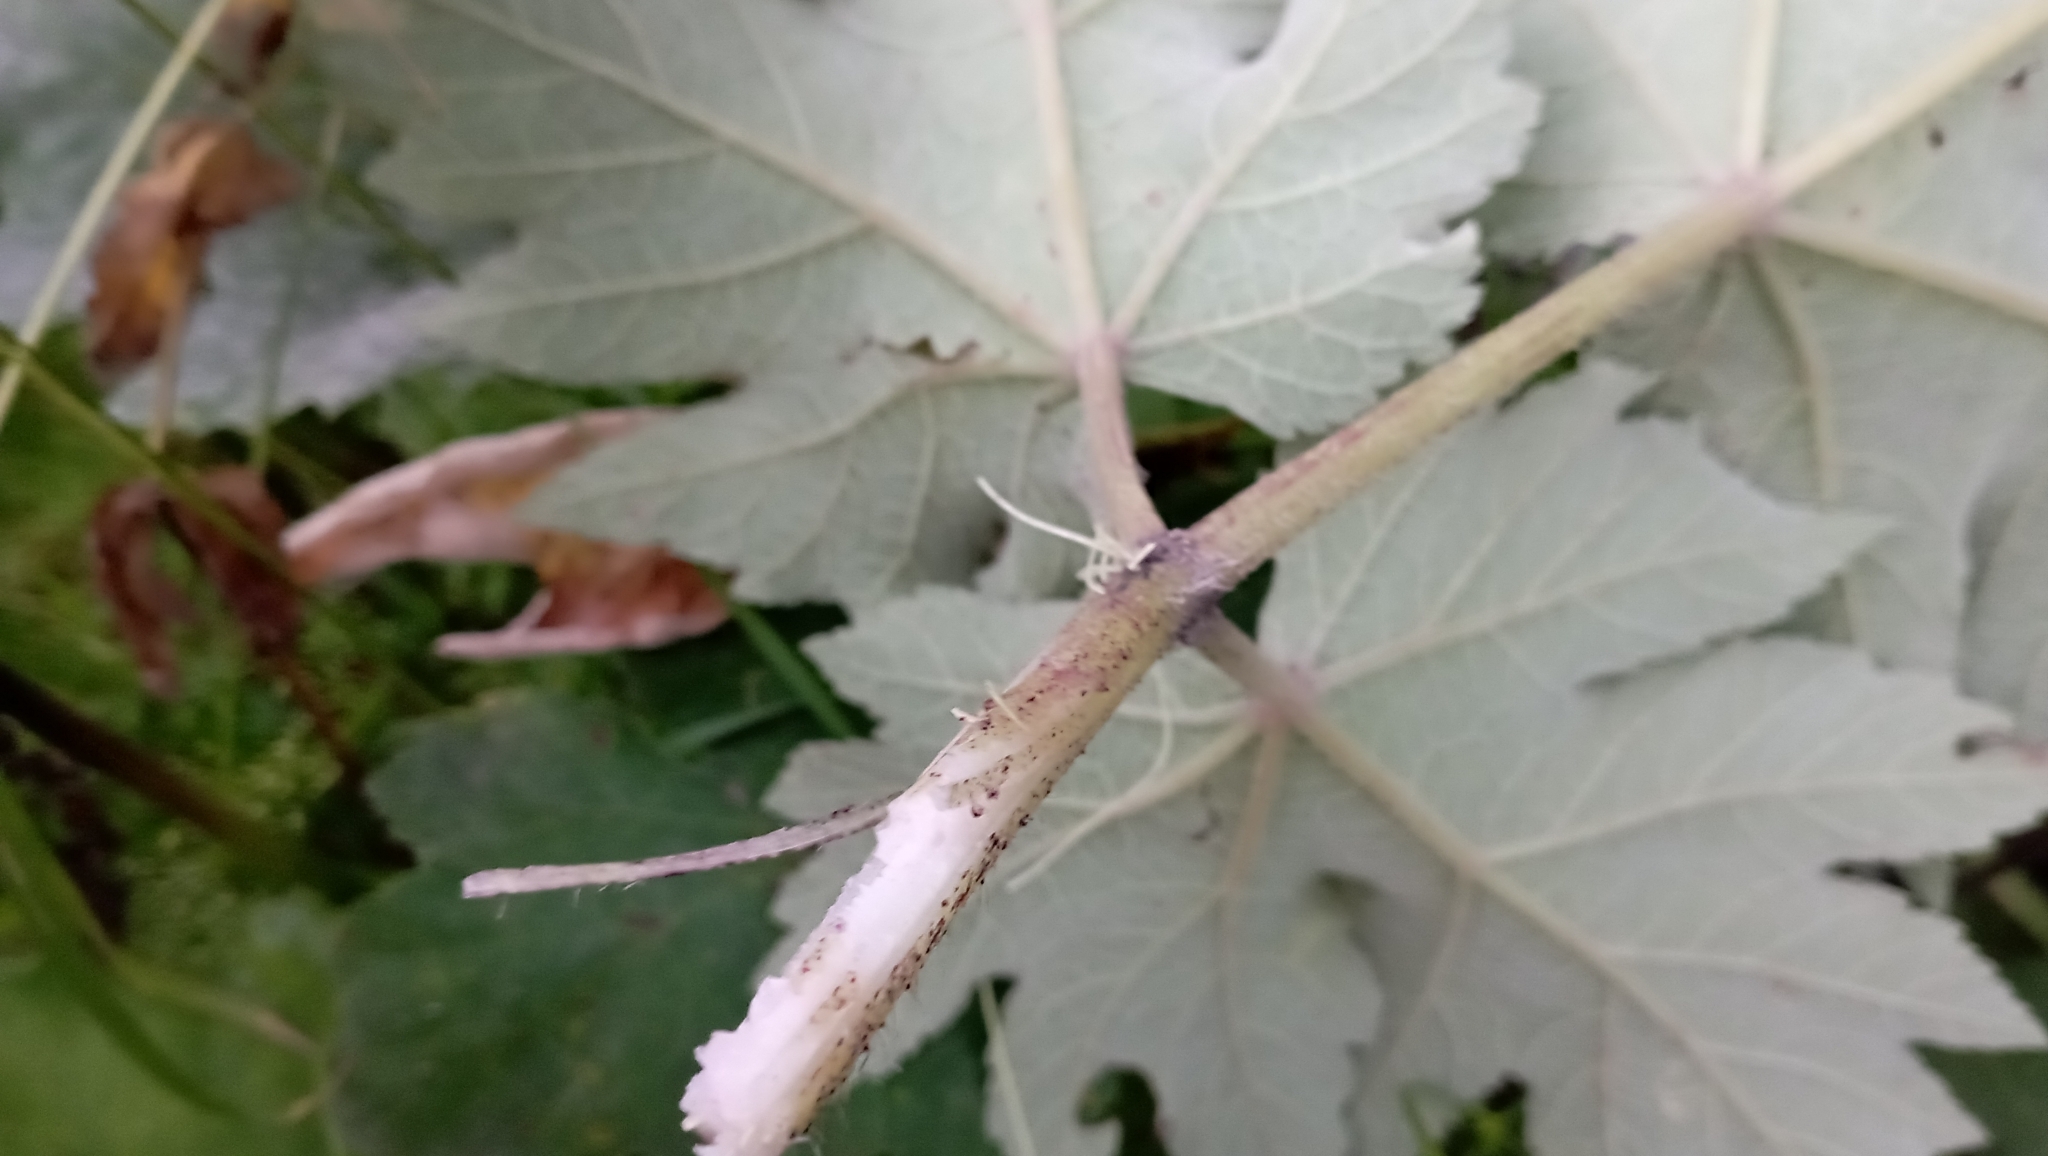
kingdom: Plantae
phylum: Tracheophyta
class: Magnoliopsida
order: Apiales
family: Apiaceae
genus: Heracleum
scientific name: Heracleum dissectum
